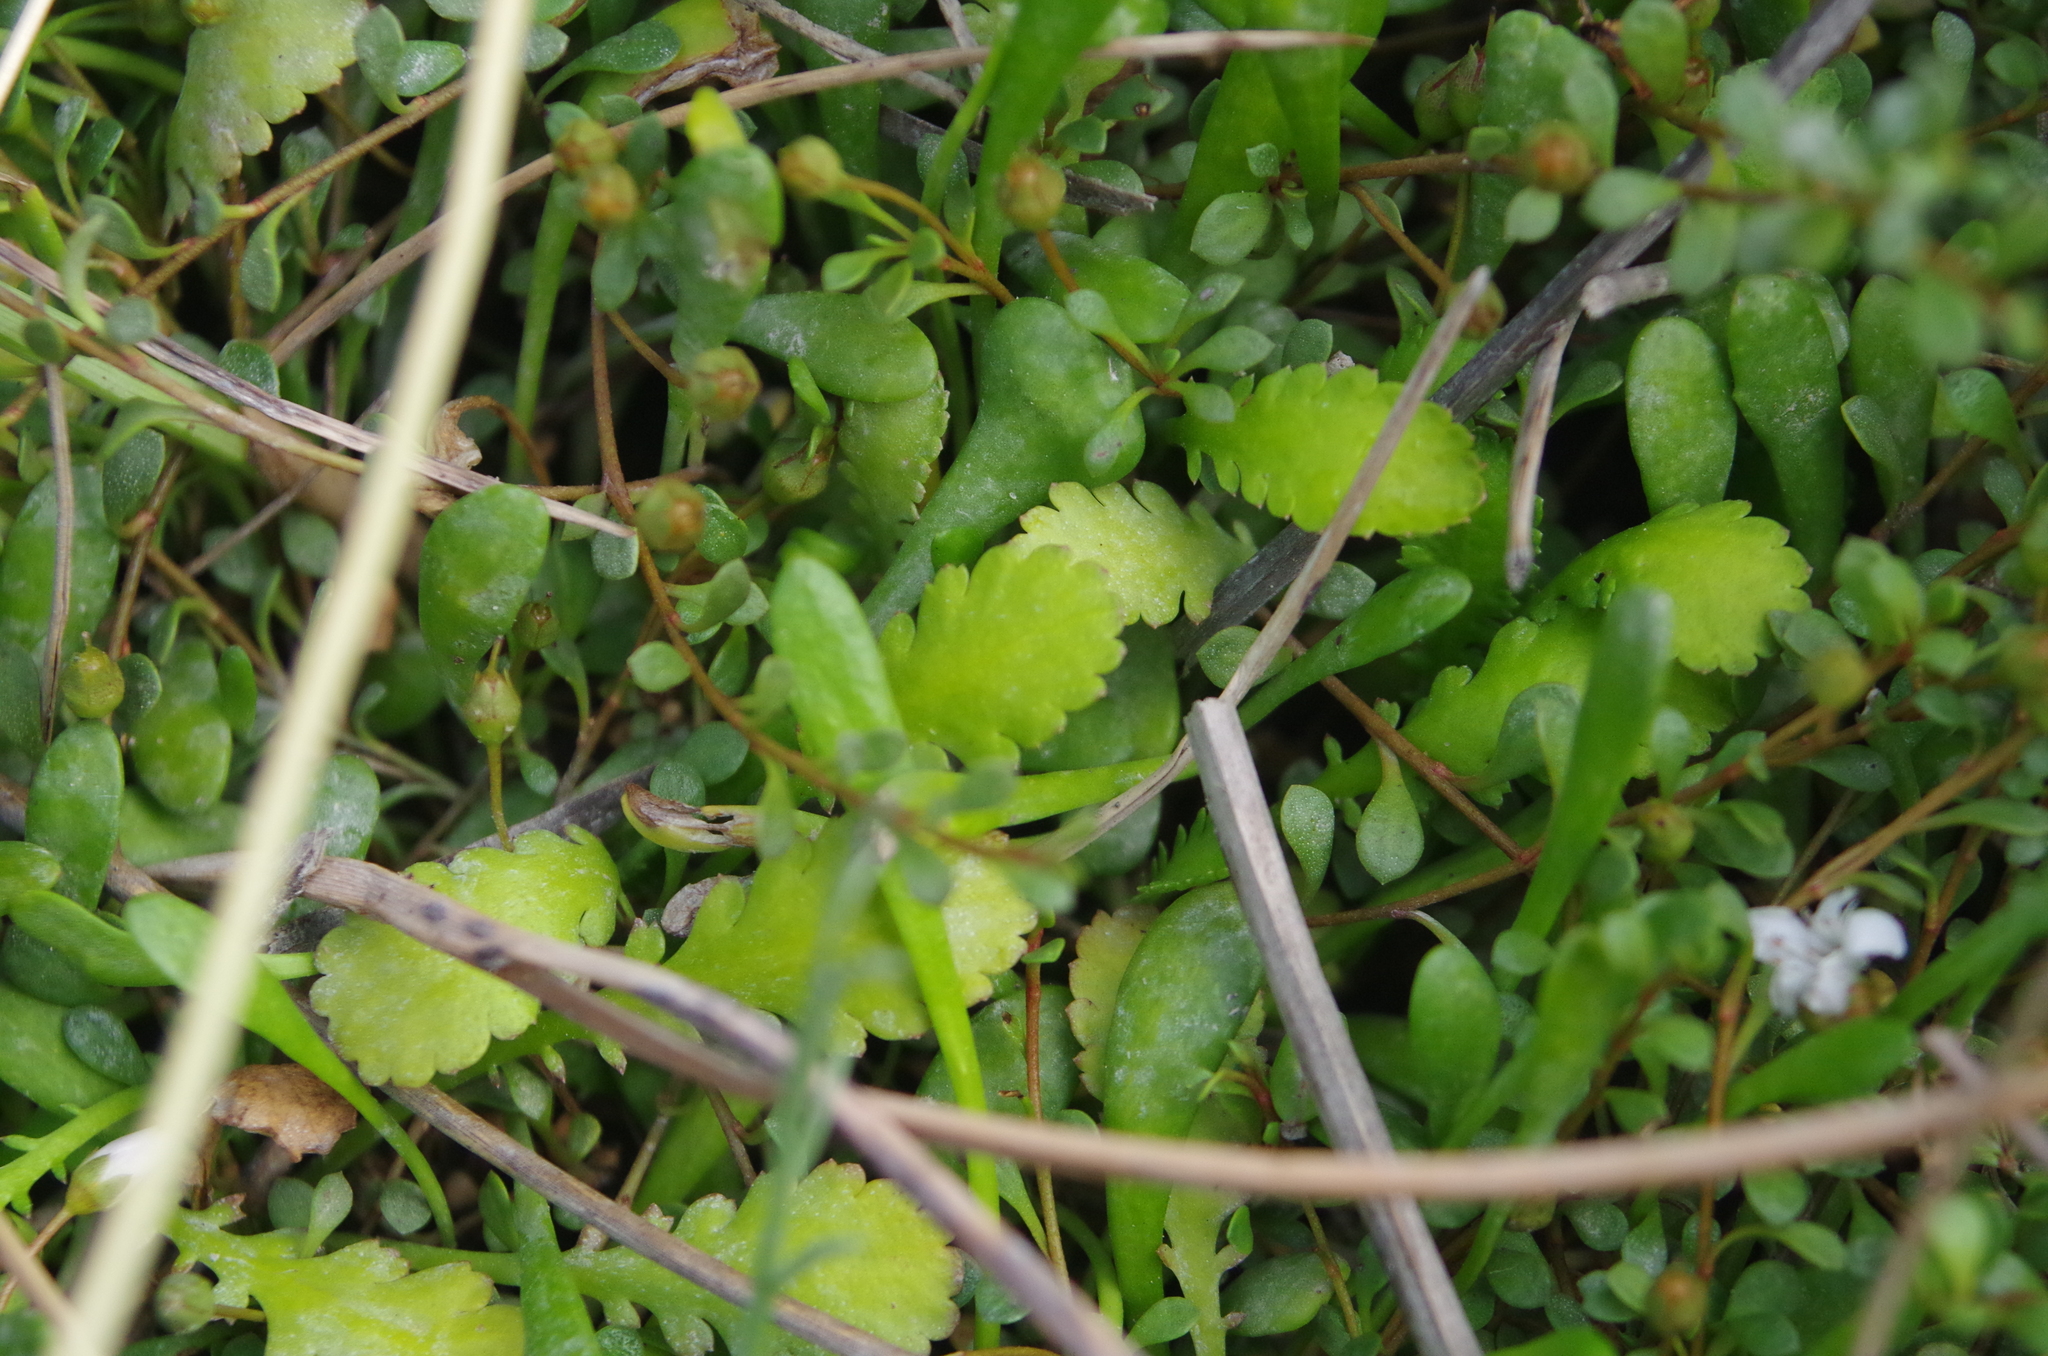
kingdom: Plantae
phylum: Tracheophyta
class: Magnoliopsida
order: Asterales
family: Asteraceae
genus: Leptinella
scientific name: Leptinella dioica
